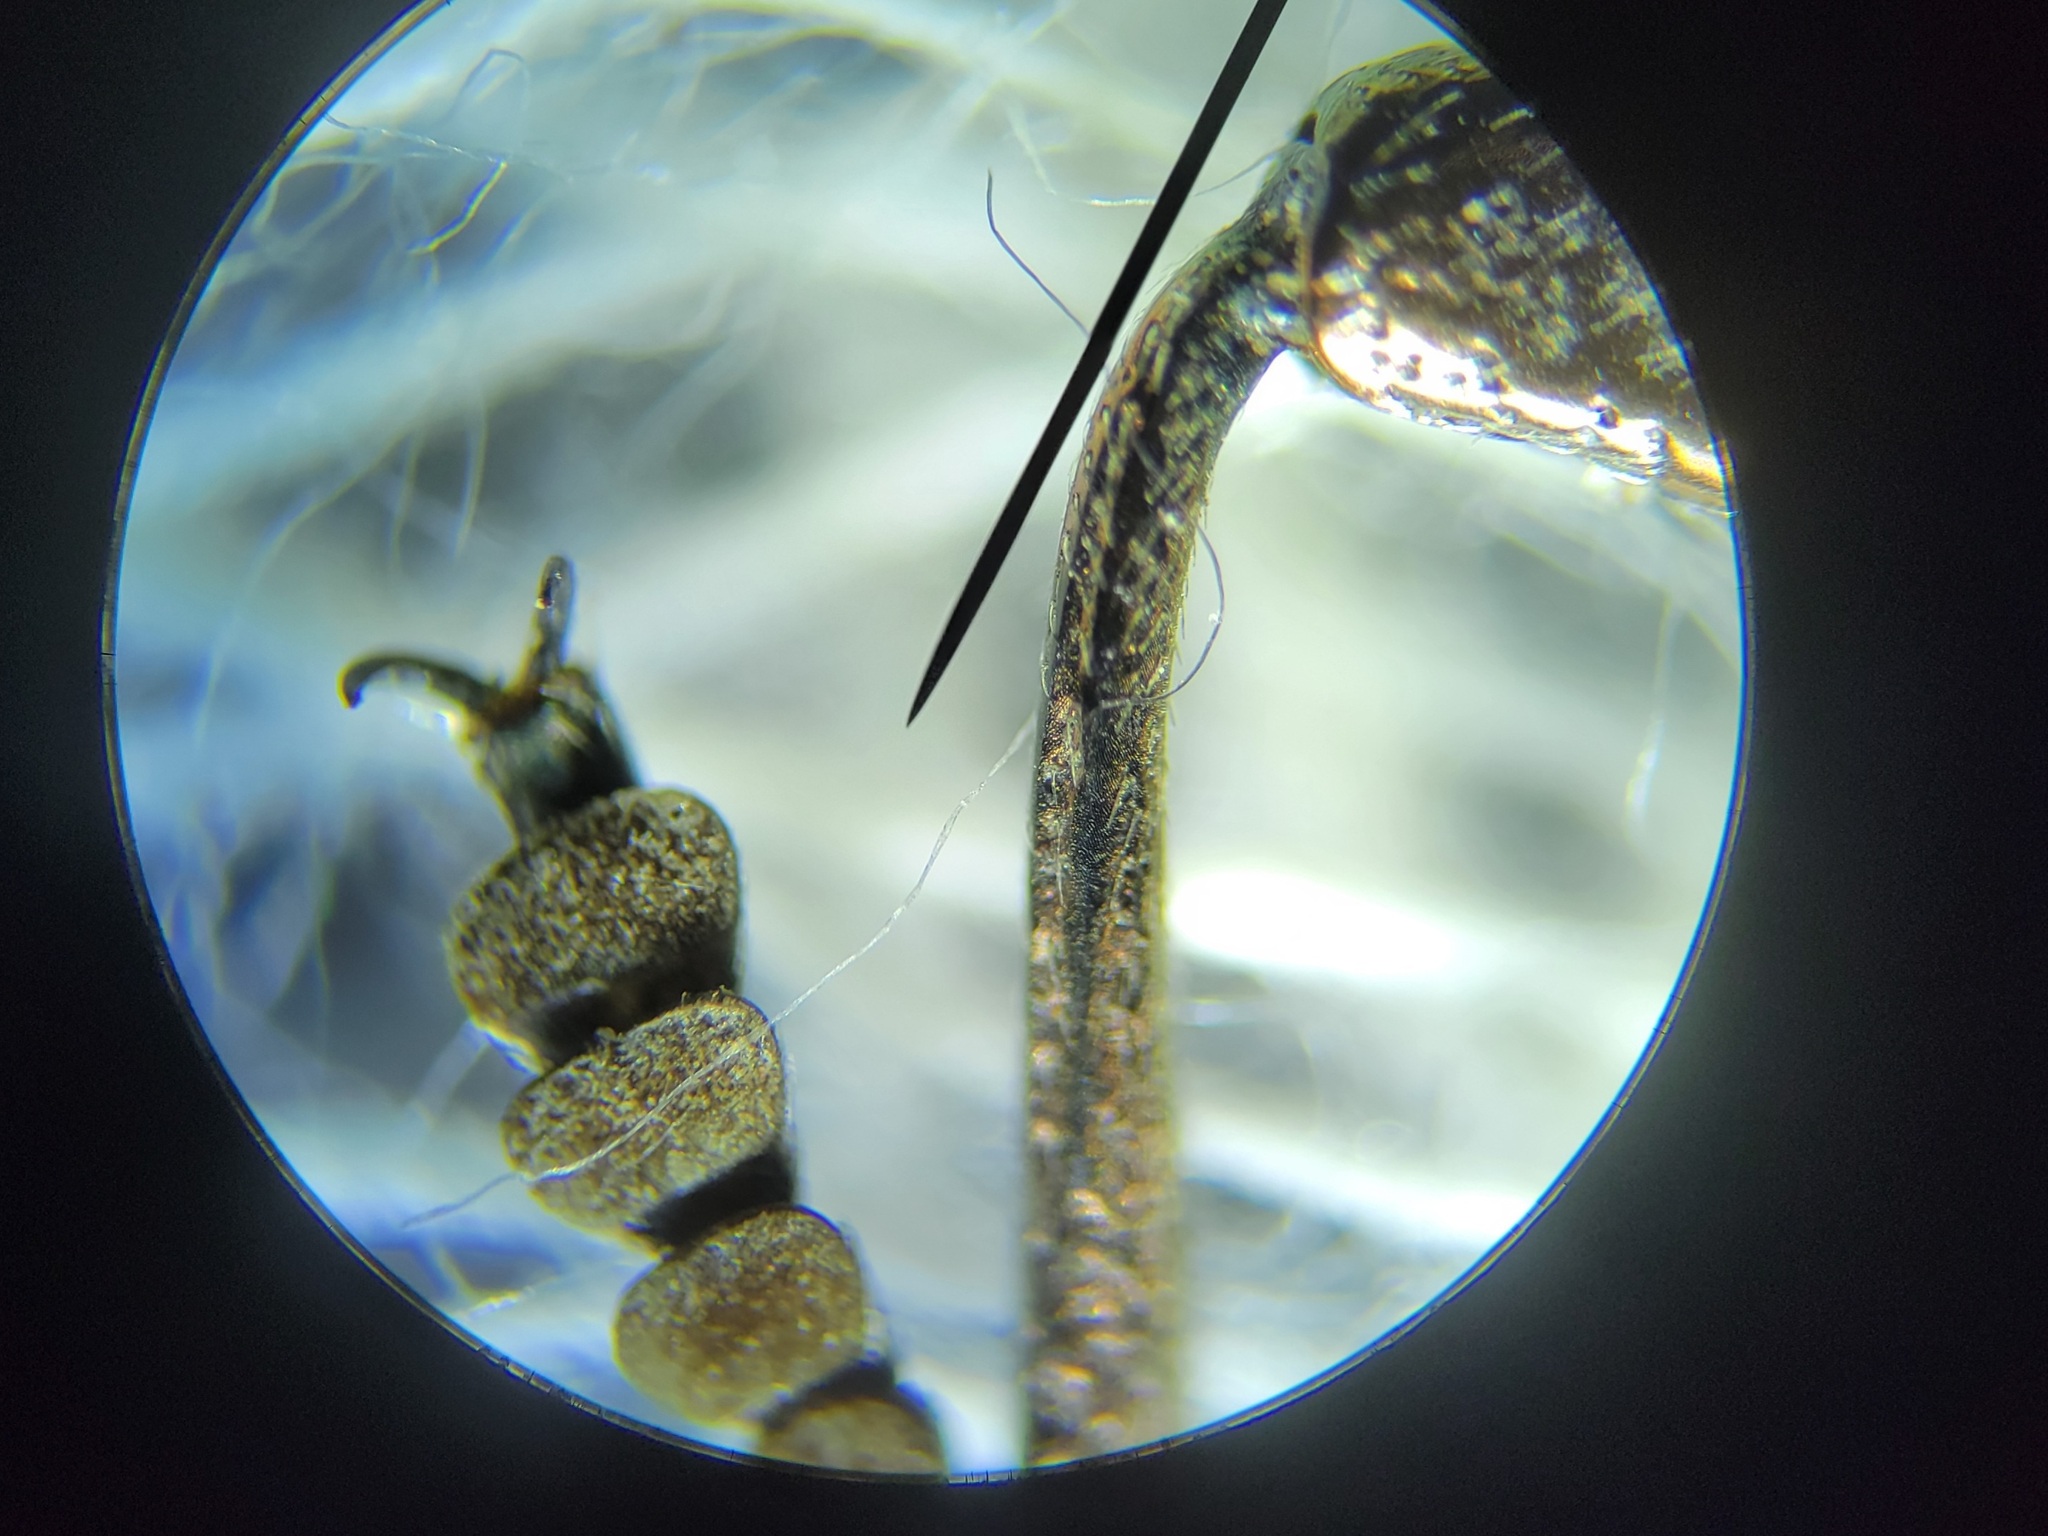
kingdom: Animalia
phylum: Arthropoda
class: Insecta
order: Coleoptera
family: Buprestidae
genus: Chalcophora
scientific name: Chalcophora virginiensis
